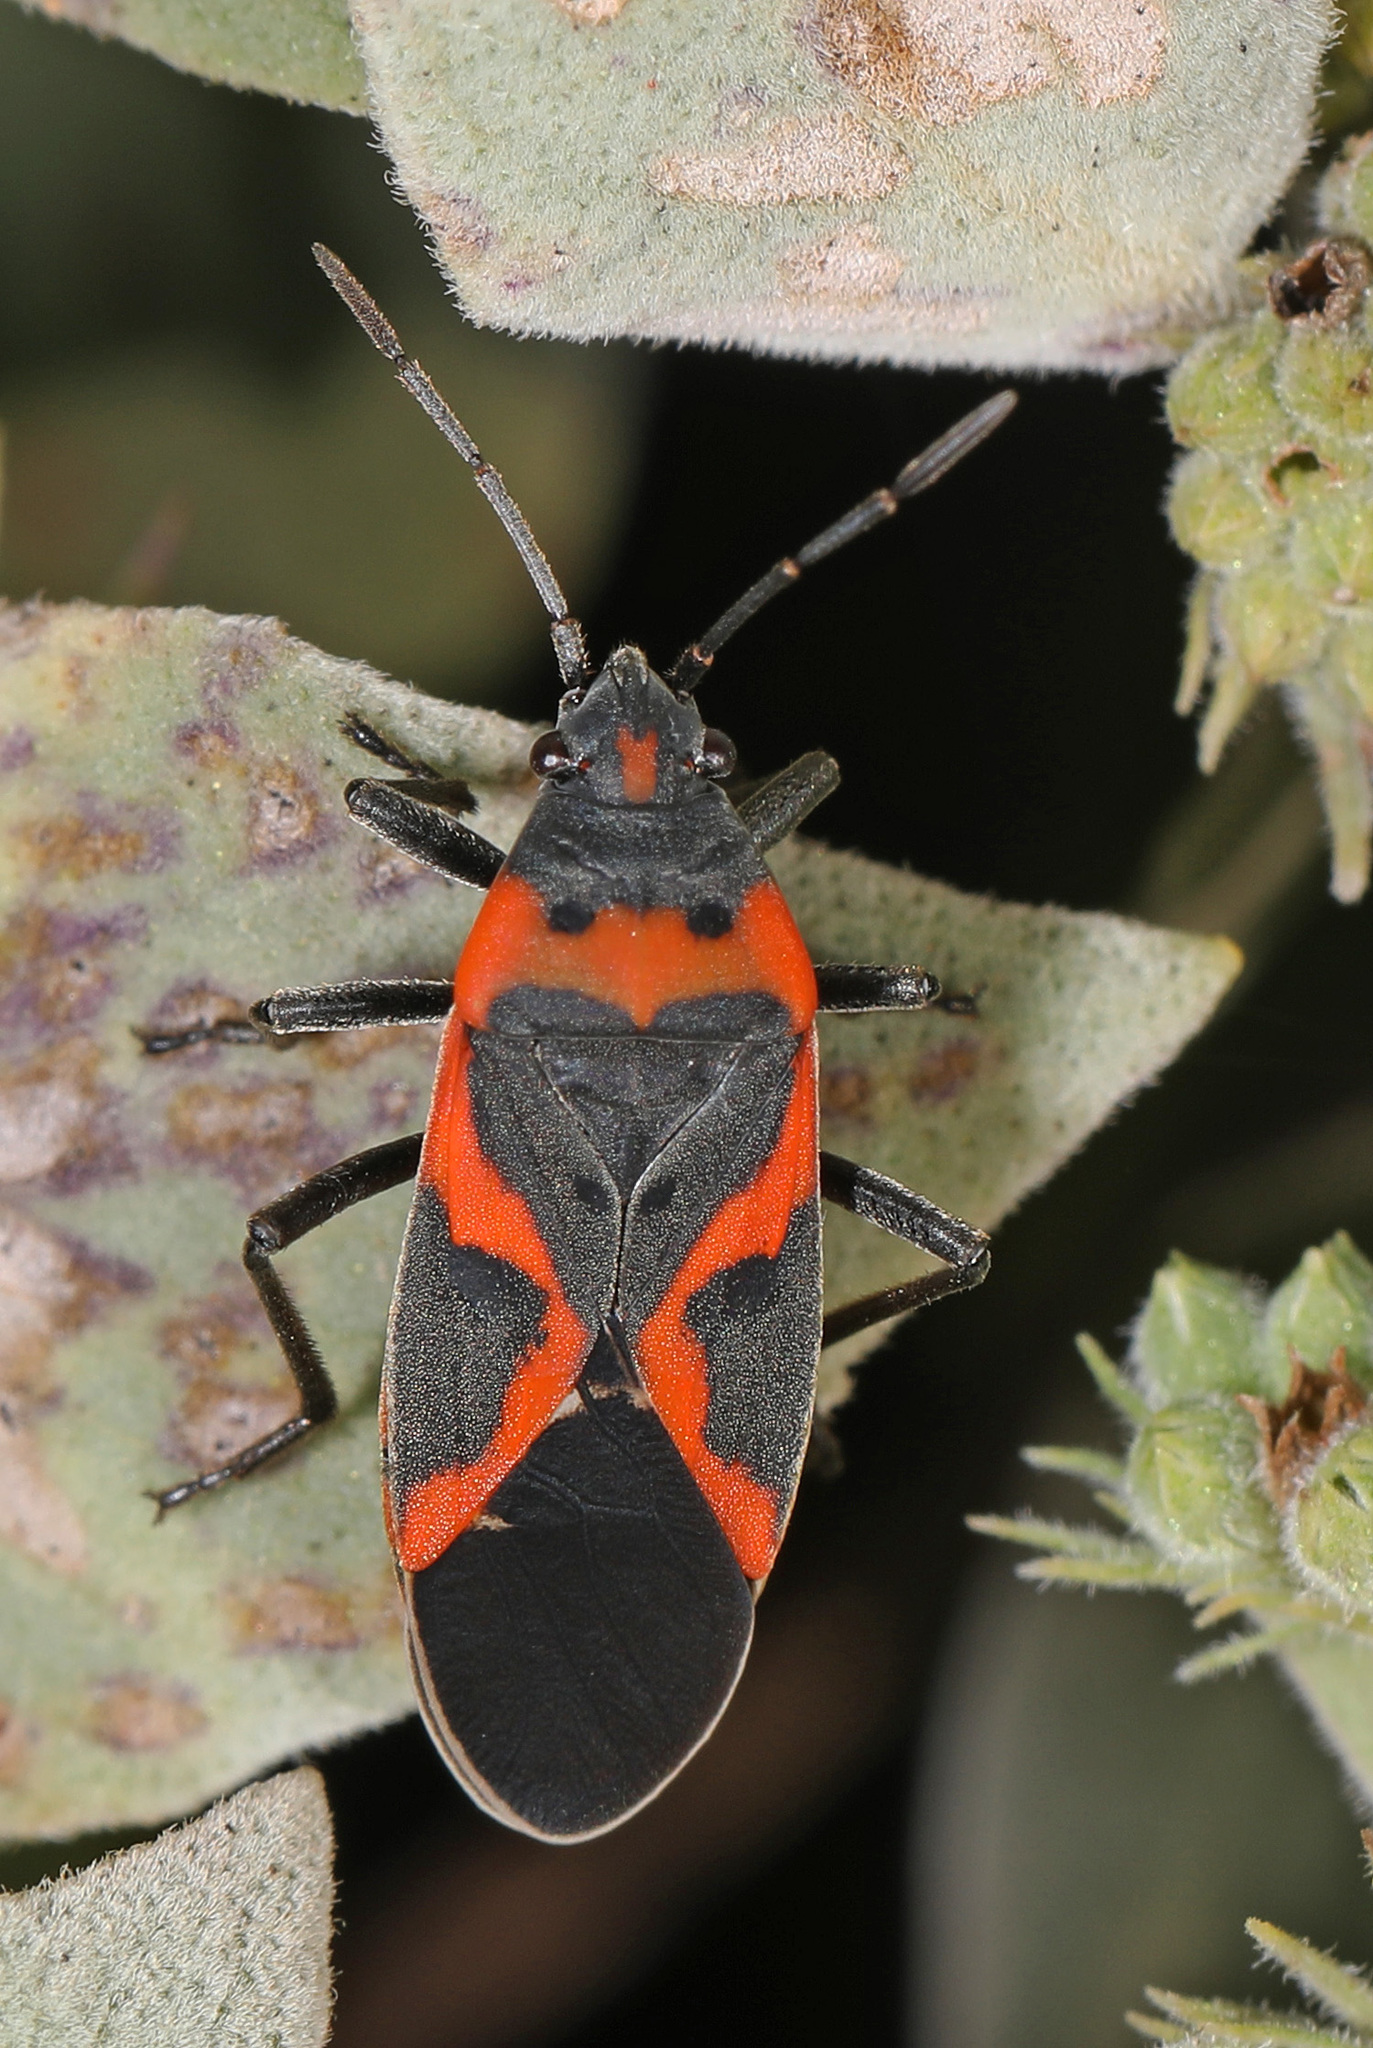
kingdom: Animalia
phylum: Arthropoda
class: Insecta
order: Hemiptera
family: Lygaeidae
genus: Lygaeus
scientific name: Lygaeus kalmii
